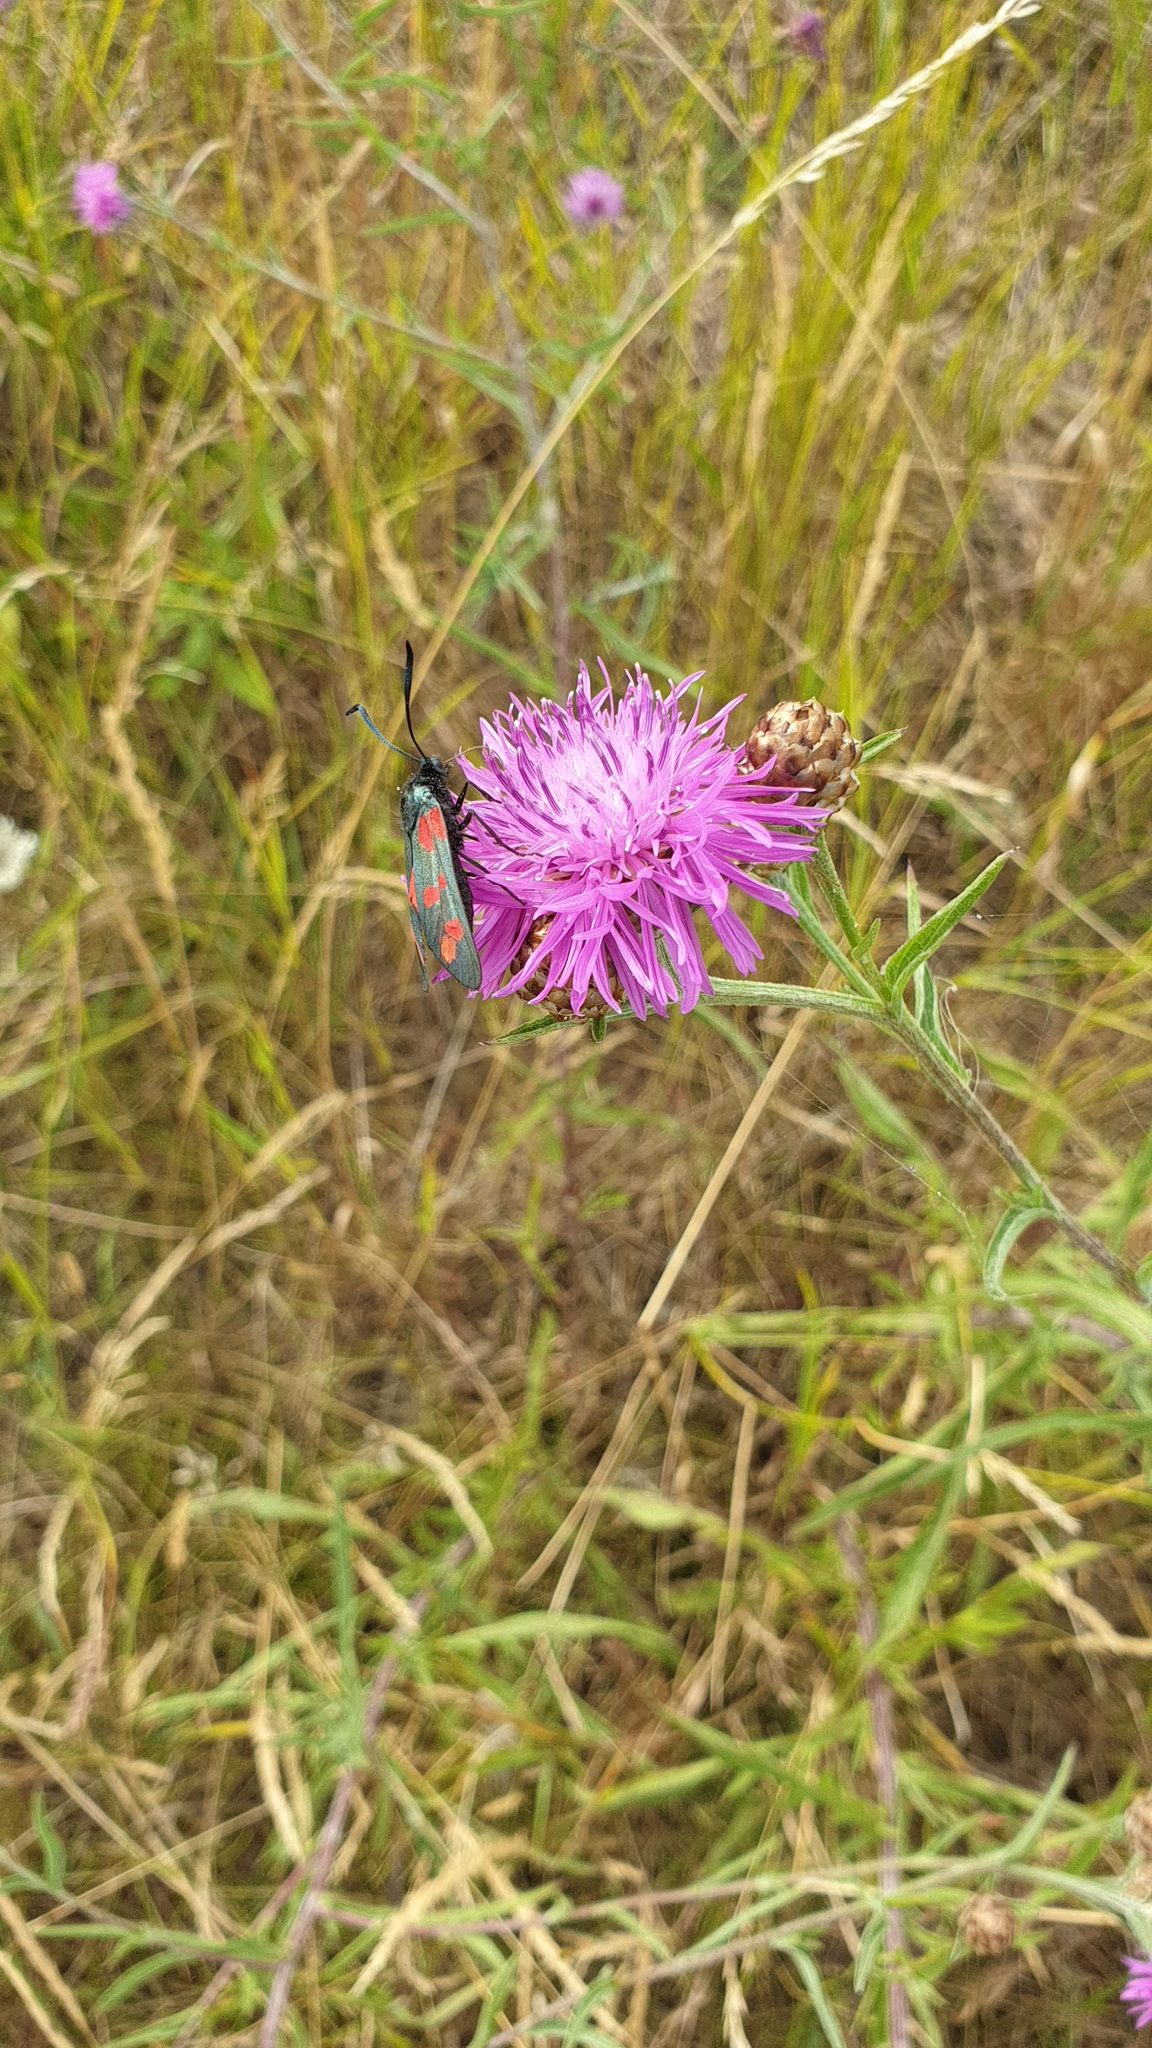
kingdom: Animalia
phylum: Arthropoda
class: Insecta
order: Lepidoptera
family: Zygaenidae
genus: Zygaena
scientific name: Zygaena filipendulae
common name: Six-spot burnet
